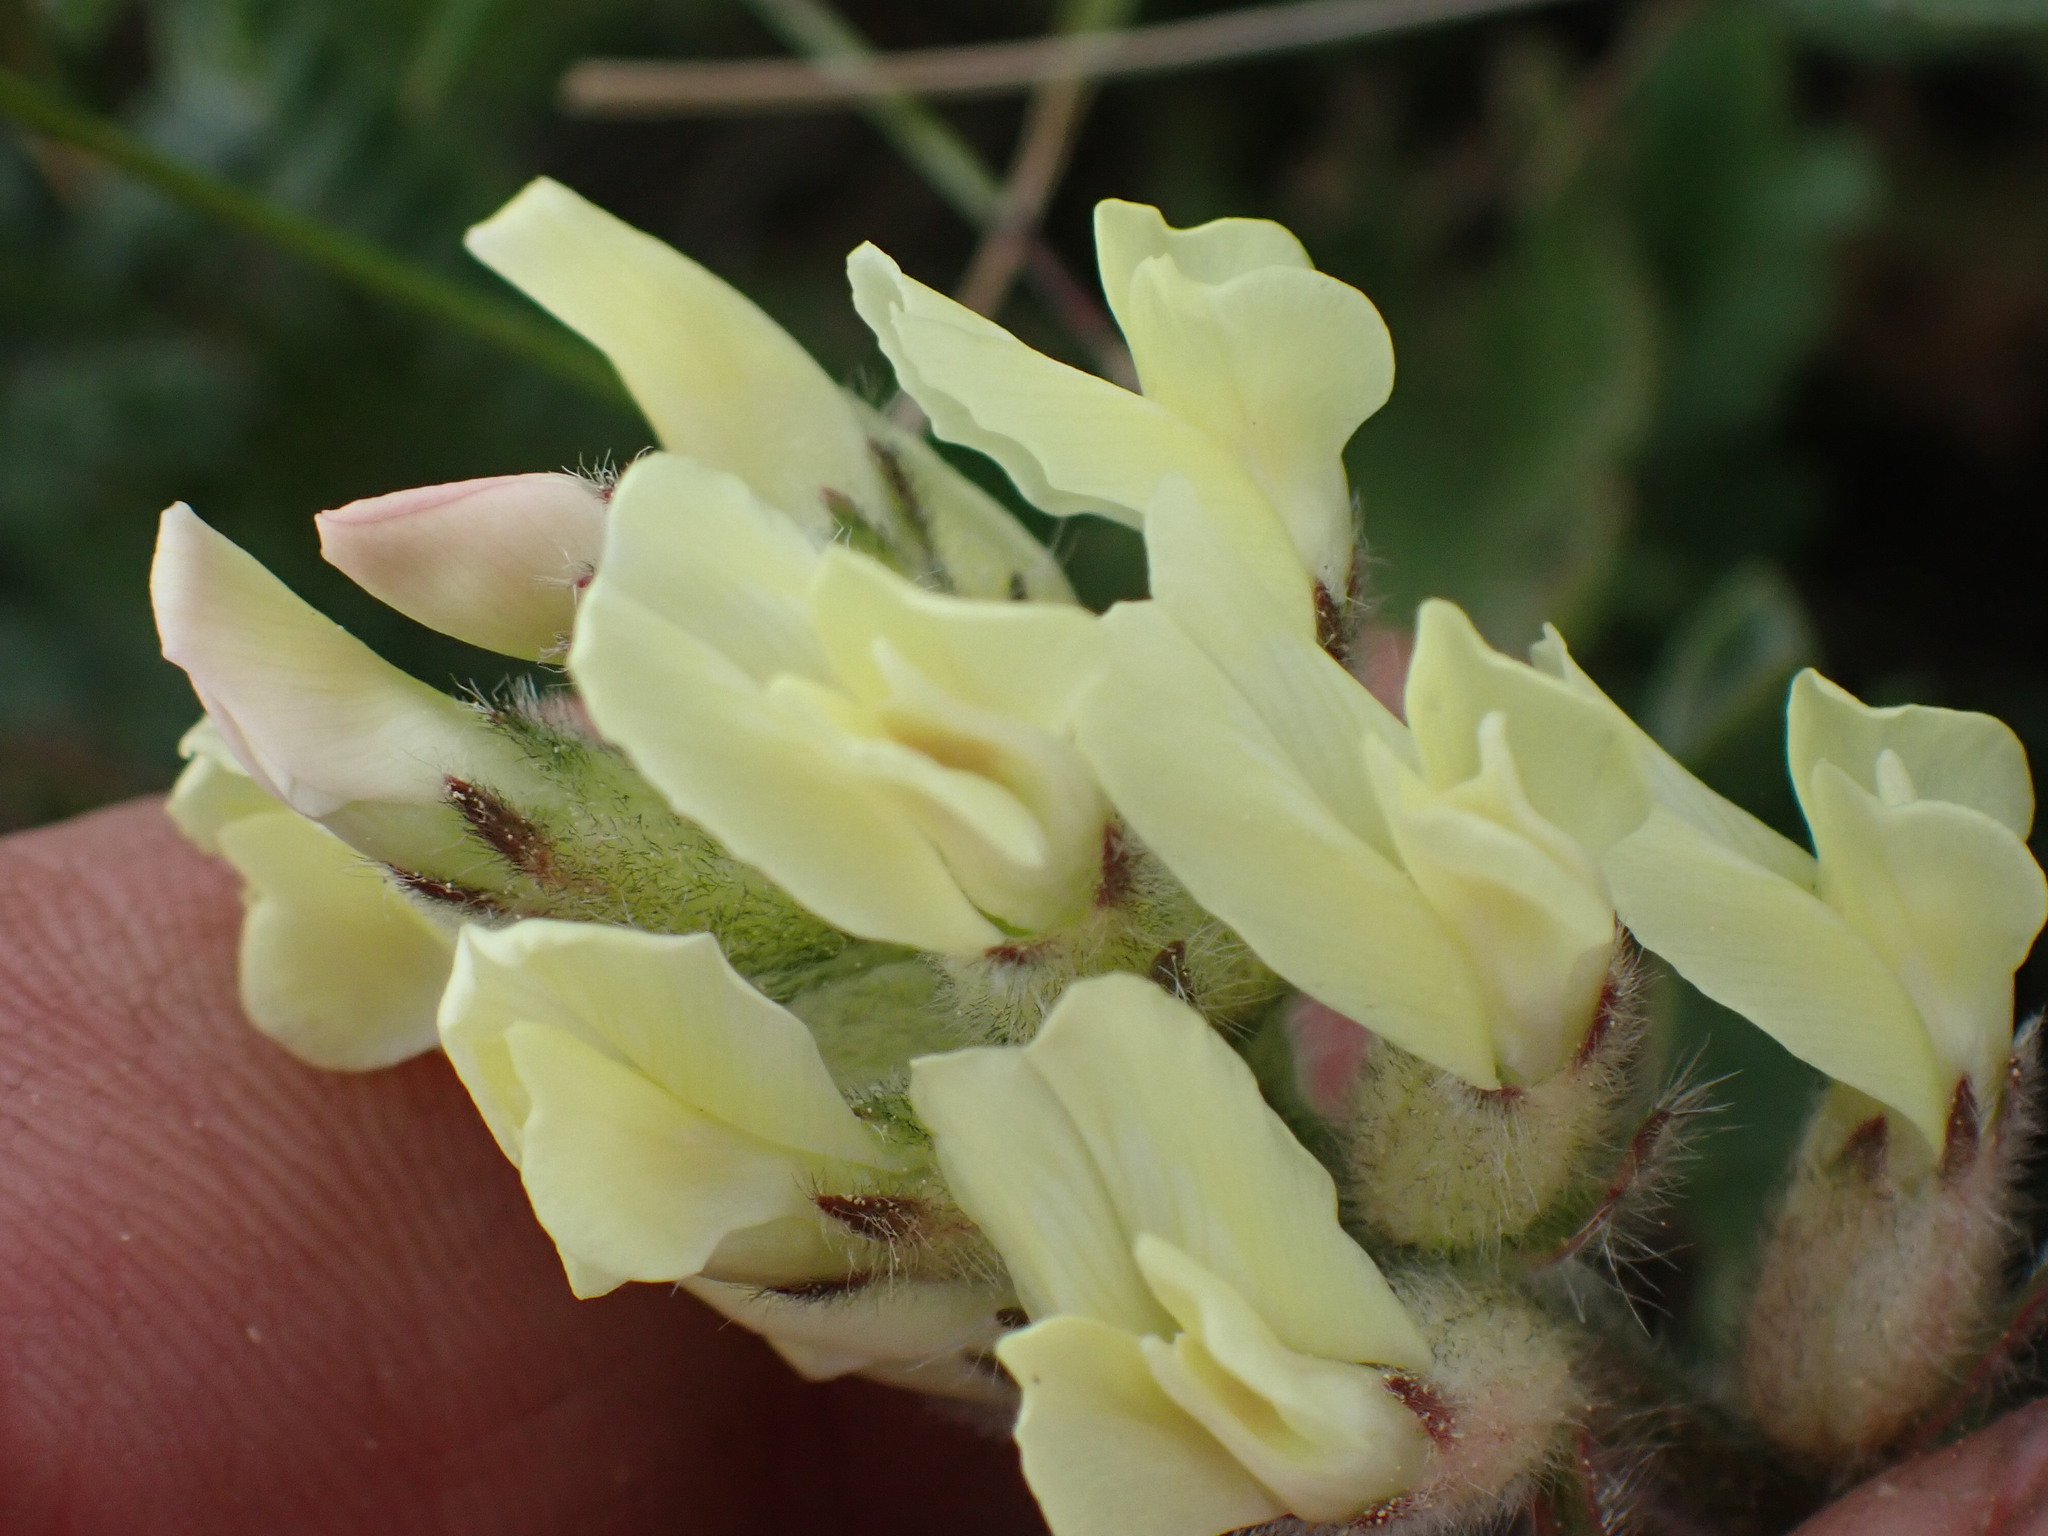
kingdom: Plantae
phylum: Tracheophyta
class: Magnoliopsida
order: Fabales
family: Fabaceae
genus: Oxytropis
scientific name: Oxytropis campestris
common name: Field locoweed
